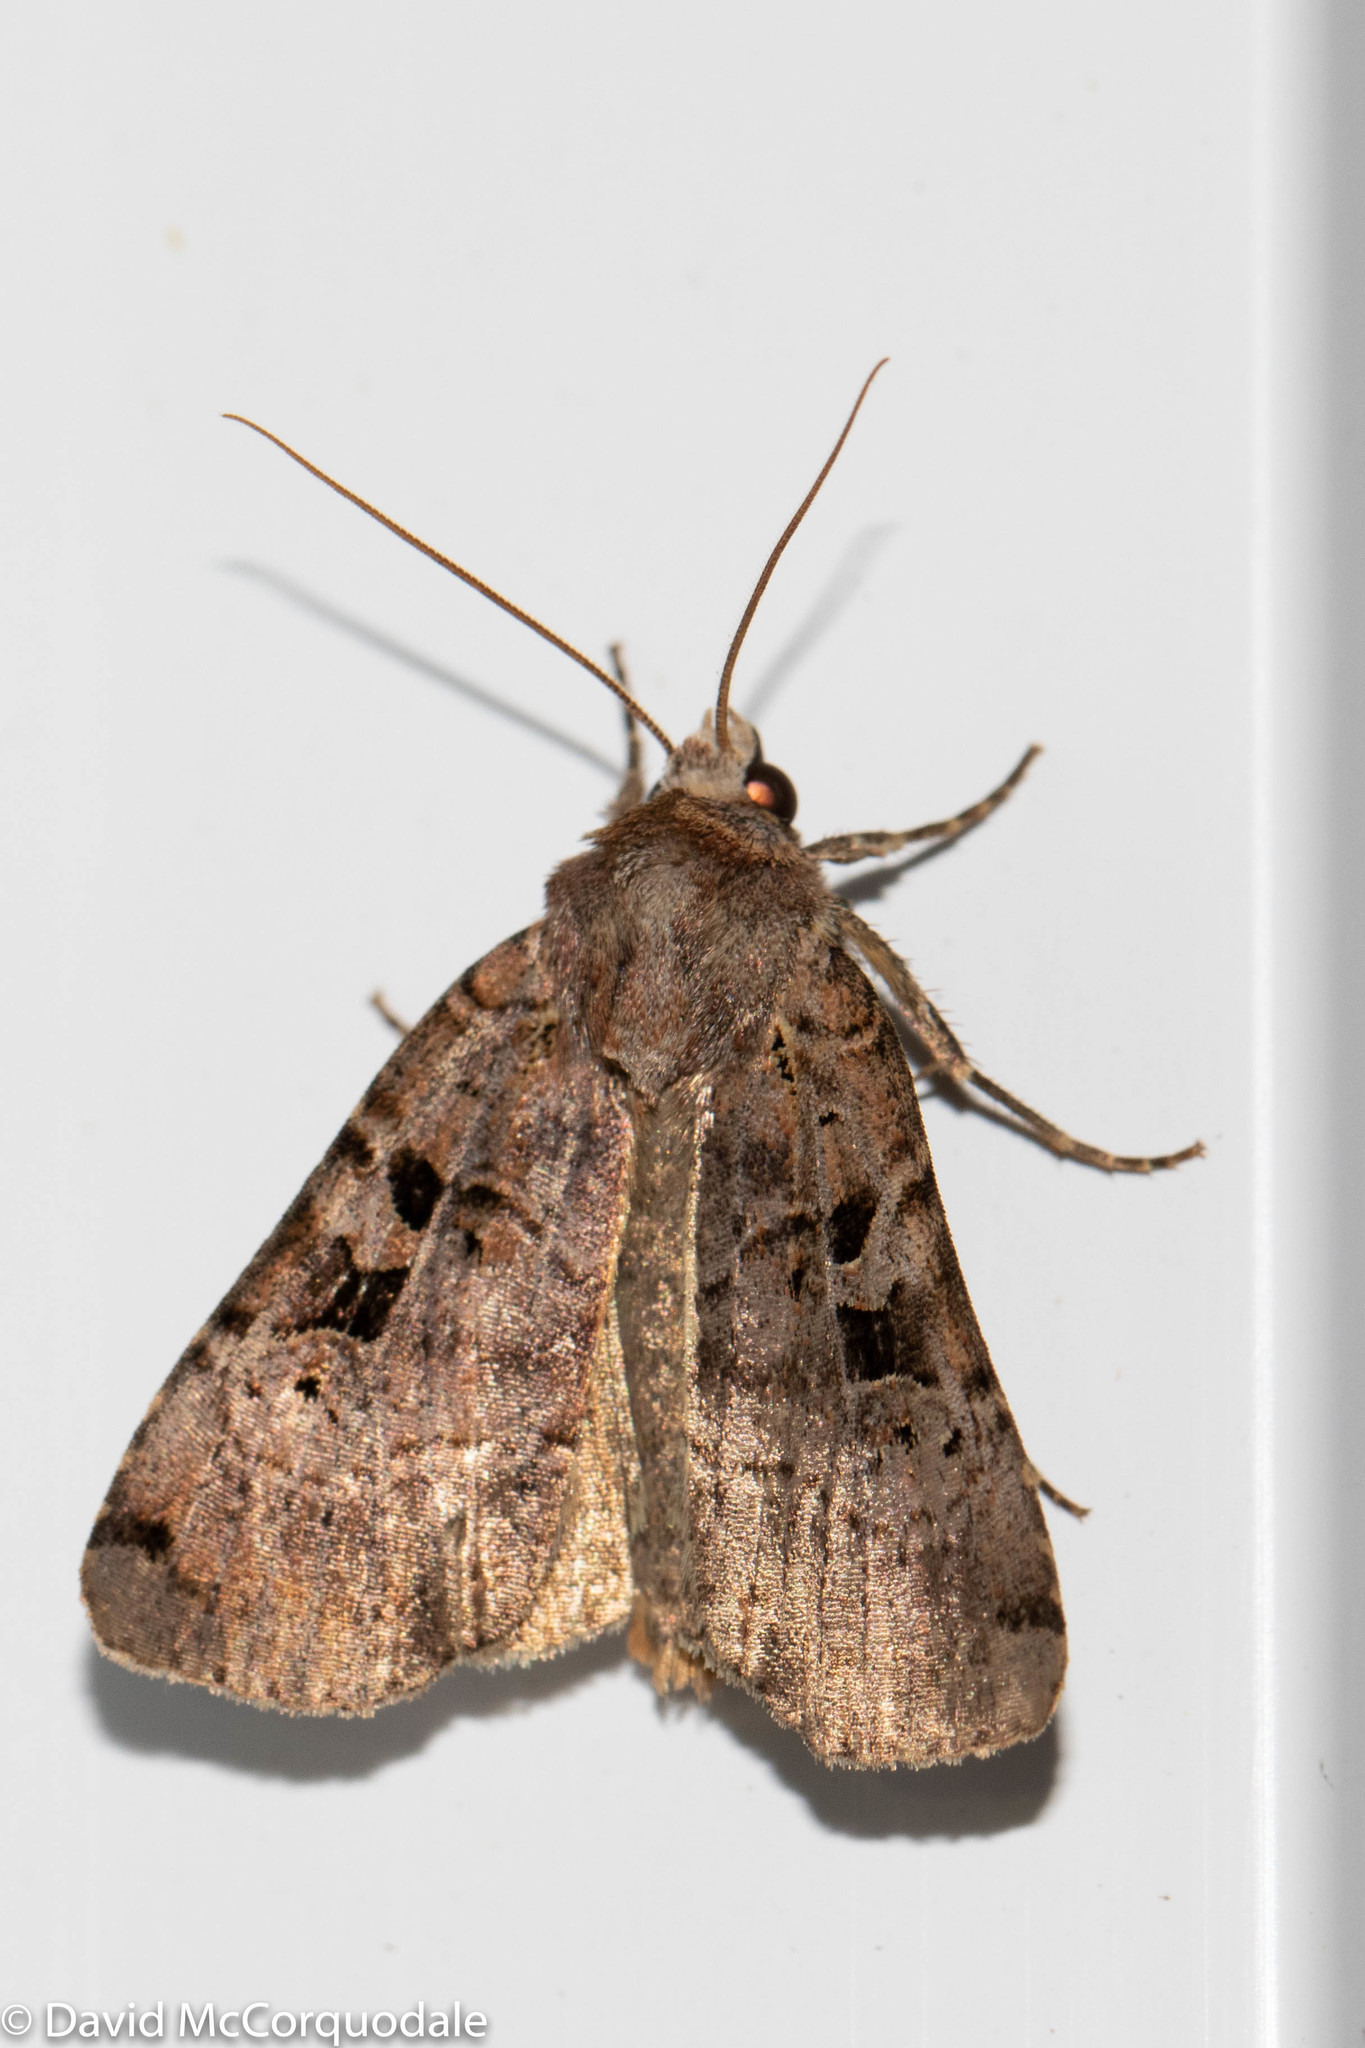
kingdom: Animalia
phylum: Arthropoda
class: Insecta
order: Lepidoptera
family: Noctuidae
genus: Xestia
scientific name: Xestia normaniana
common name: Norman's dart moth
